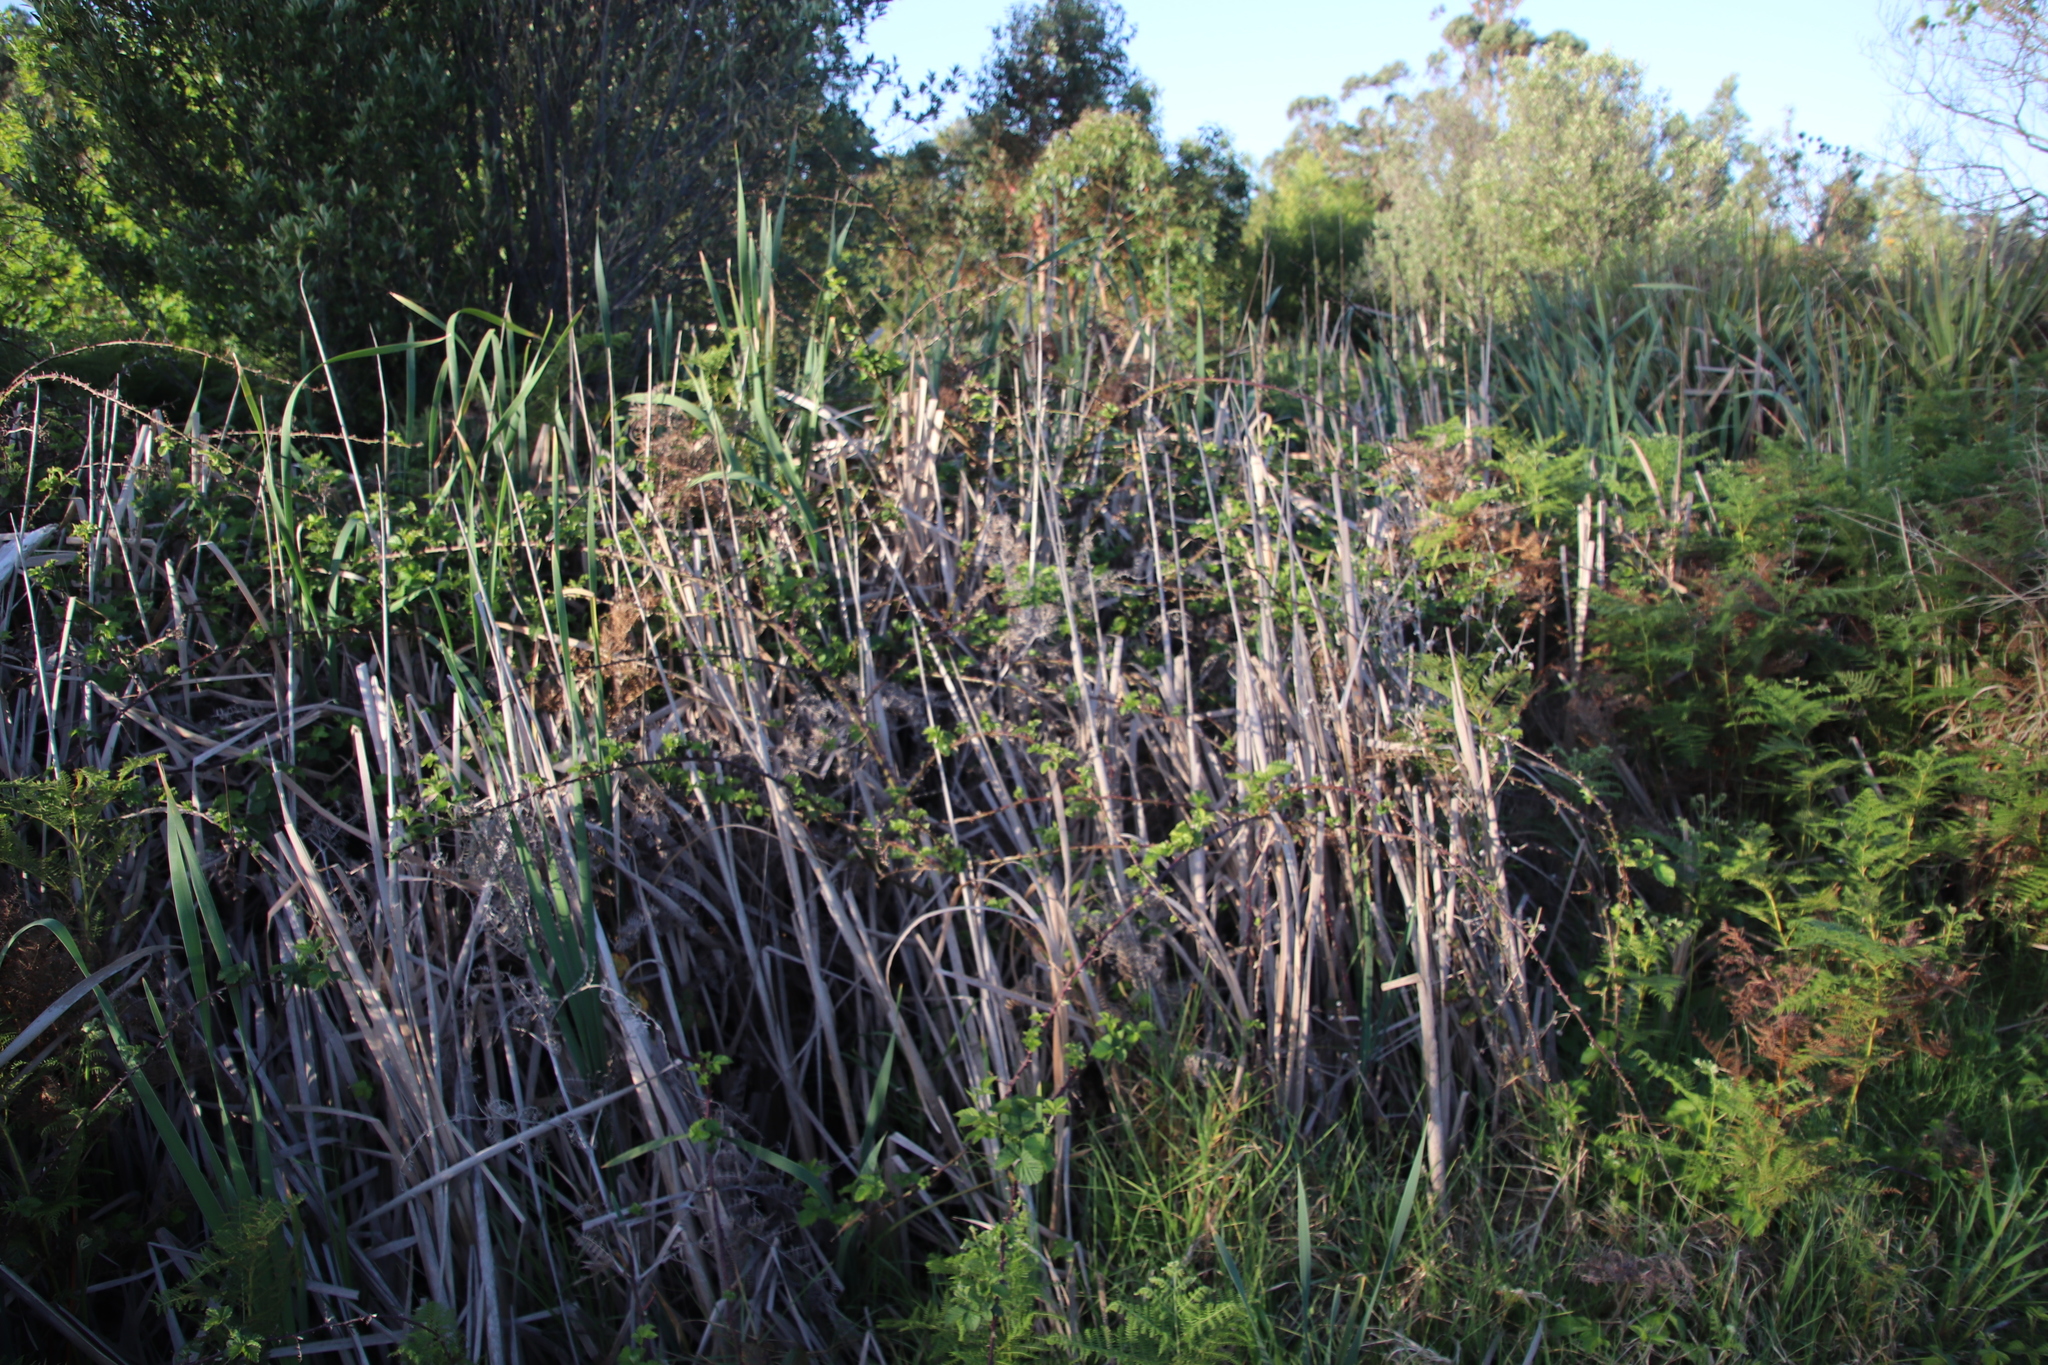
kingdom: Plantae
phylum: Tracheophyta
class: Magnoliopsida
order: Rosales
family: Rosaceae
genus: Rubus
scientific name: Rubus affinis
